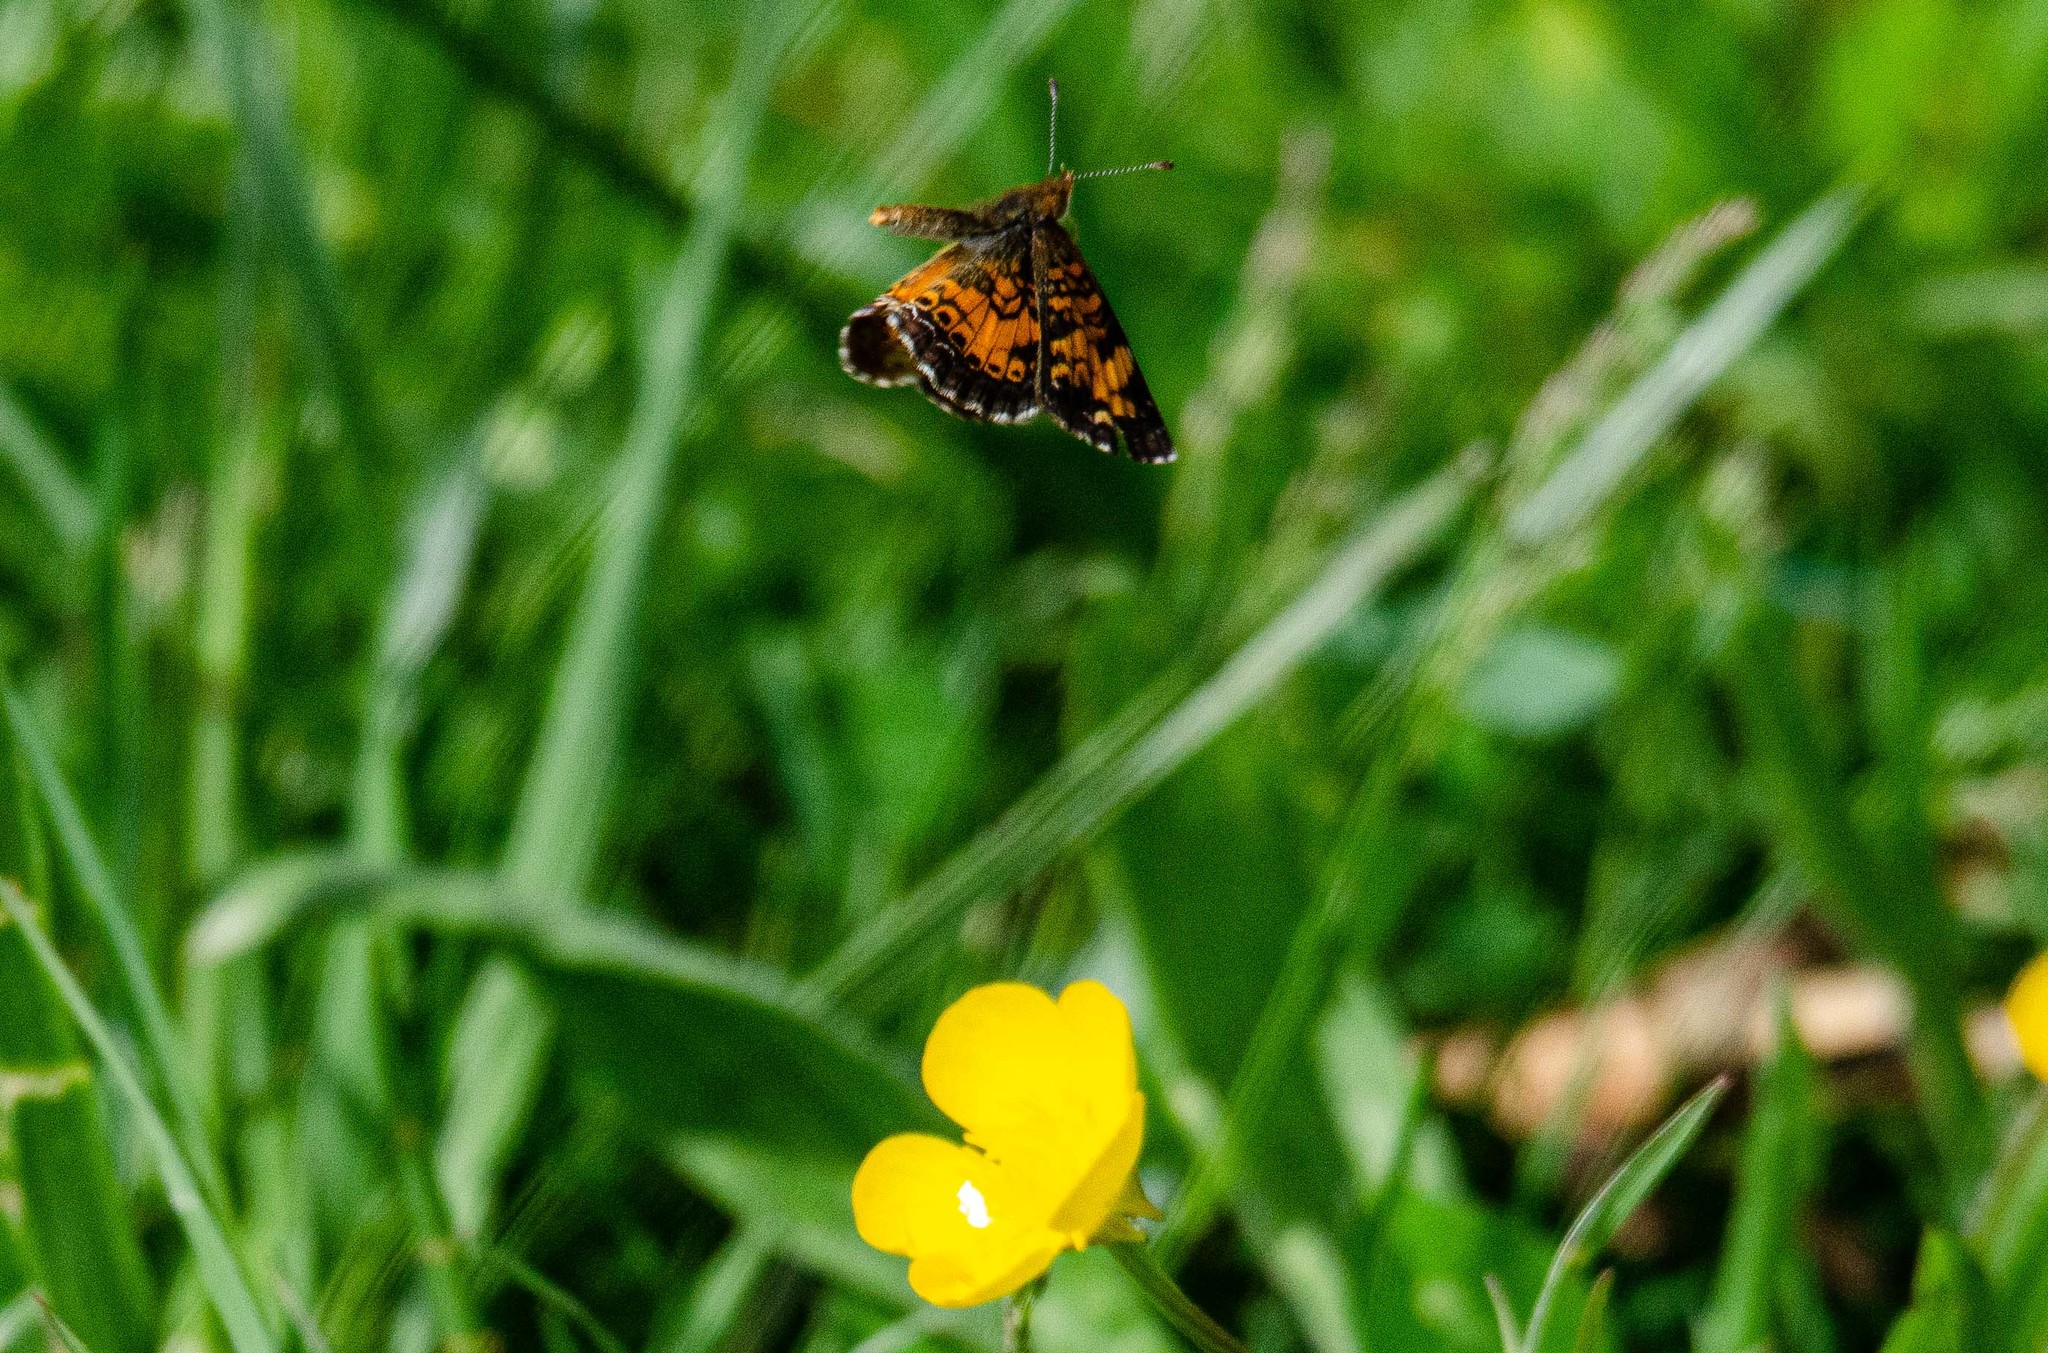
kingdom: Animalia
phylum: Arthropoda
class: Insecta
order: Lepidoptera
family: Nymphalidae
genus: Phyciodes
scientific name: Phyciodes tharos
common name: Pearl crescent
